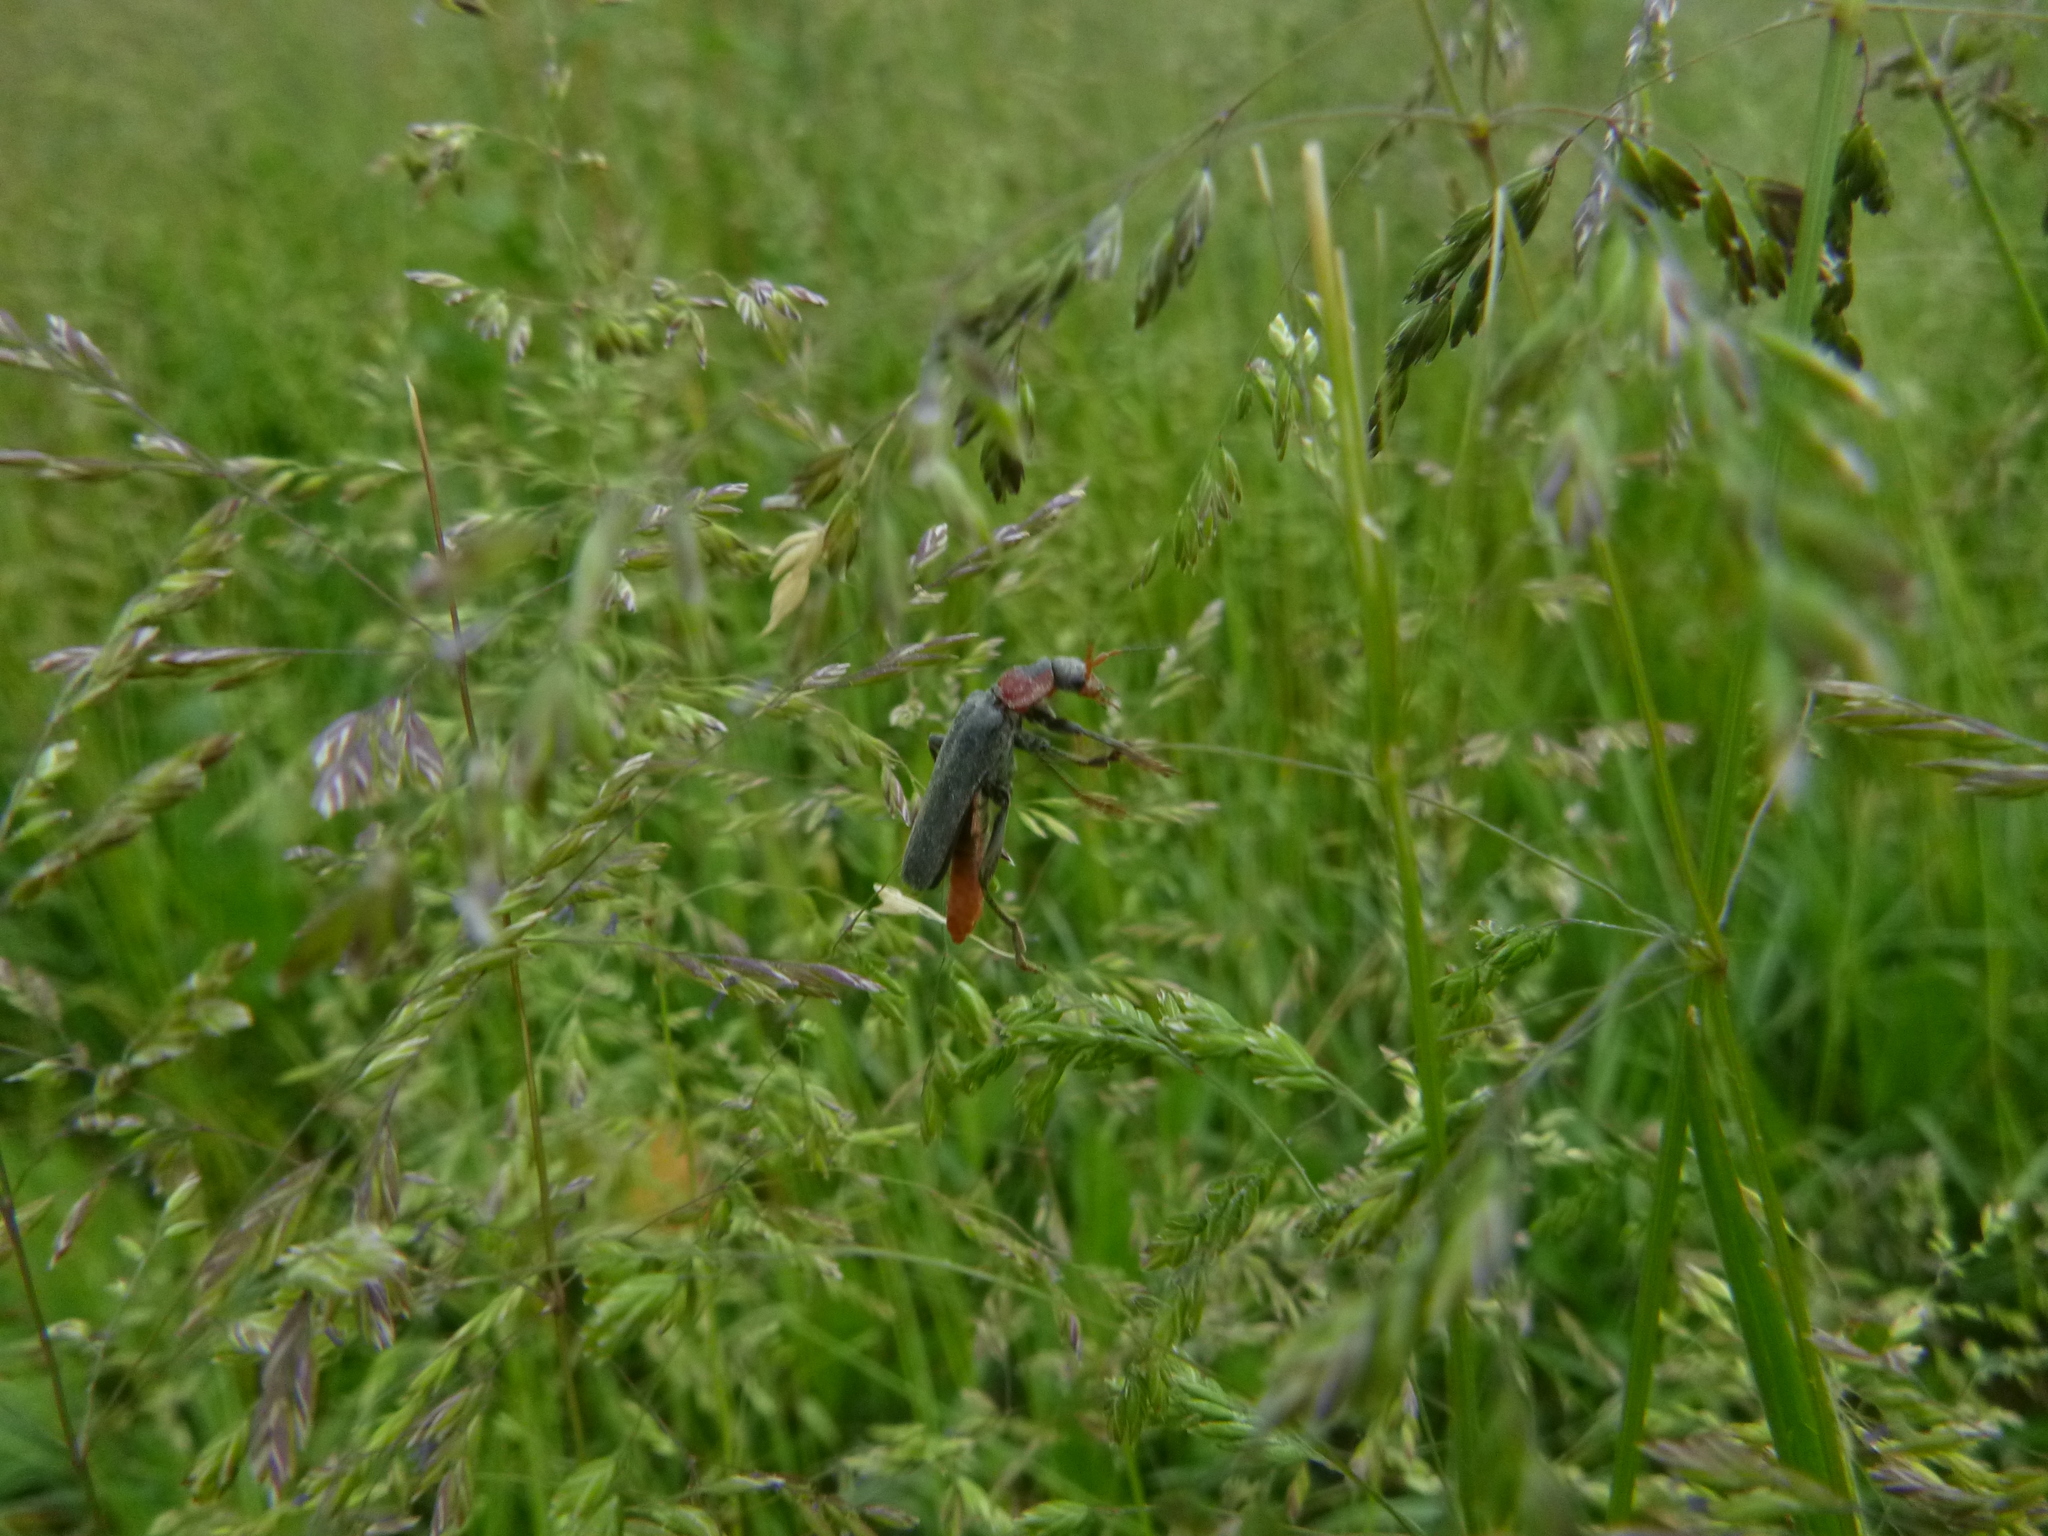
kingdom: Animalia
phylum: Arthropoda
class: Insecta
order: Coleoptera
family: Cantharidae
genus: Cantharis
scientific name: Cantharis fusca
